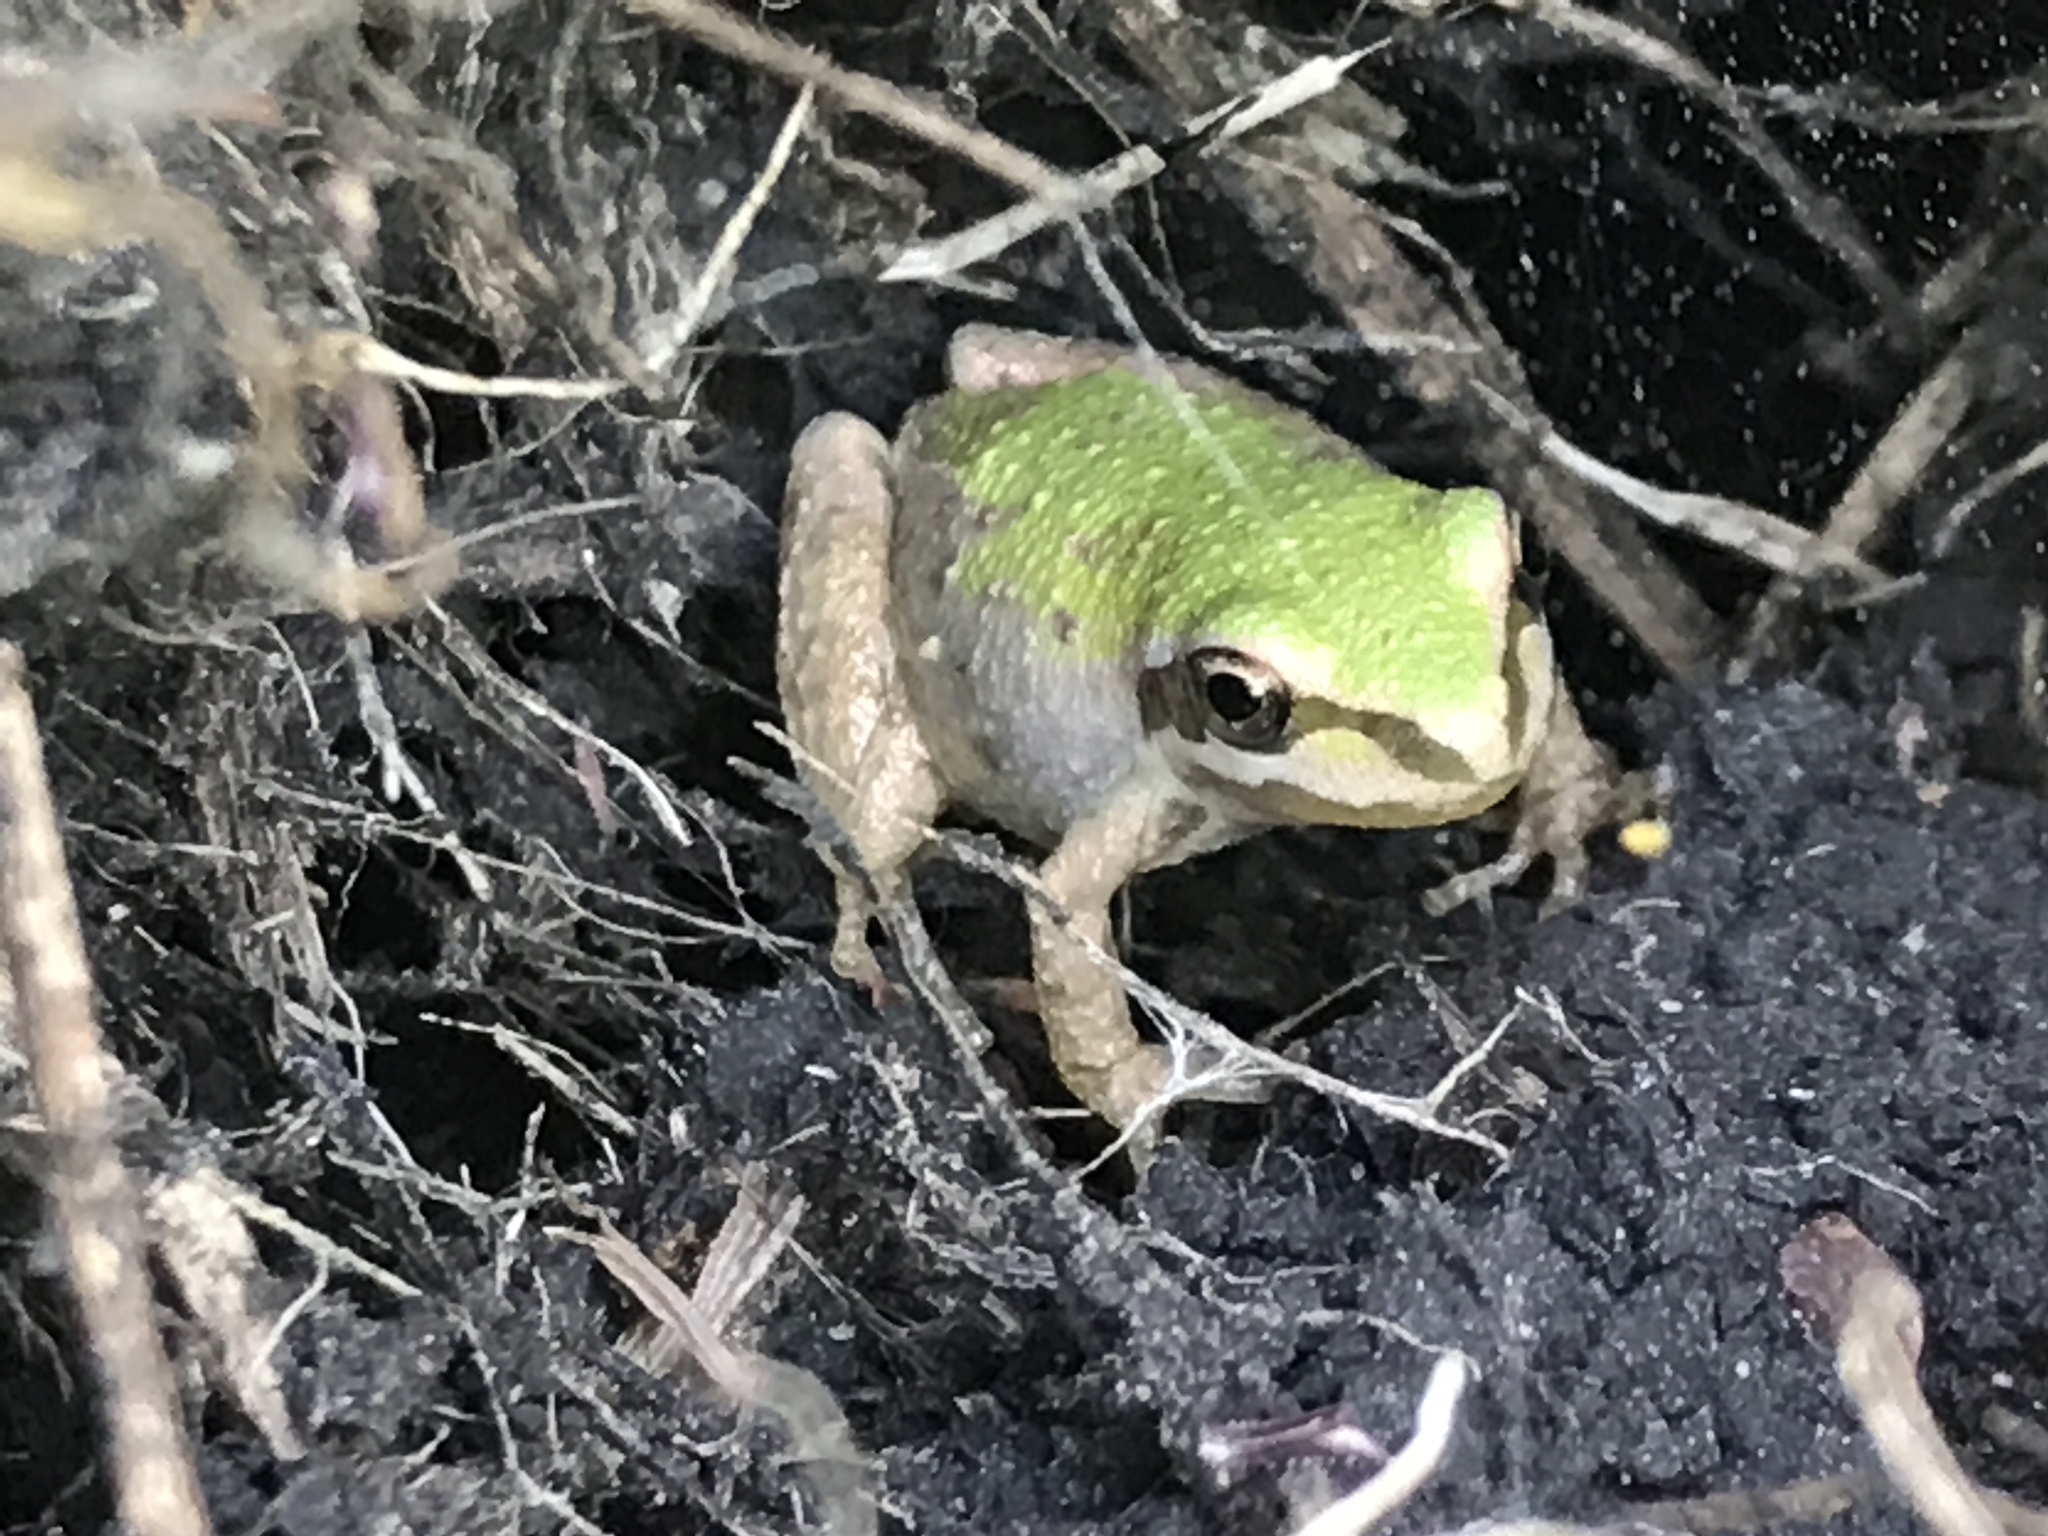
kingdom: Animalia
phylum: Chordata
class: Amphibia
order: Anura
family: Hylidae
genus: Pseudacris
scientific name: Pseudacris regilla
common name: Pacific chorus frog
